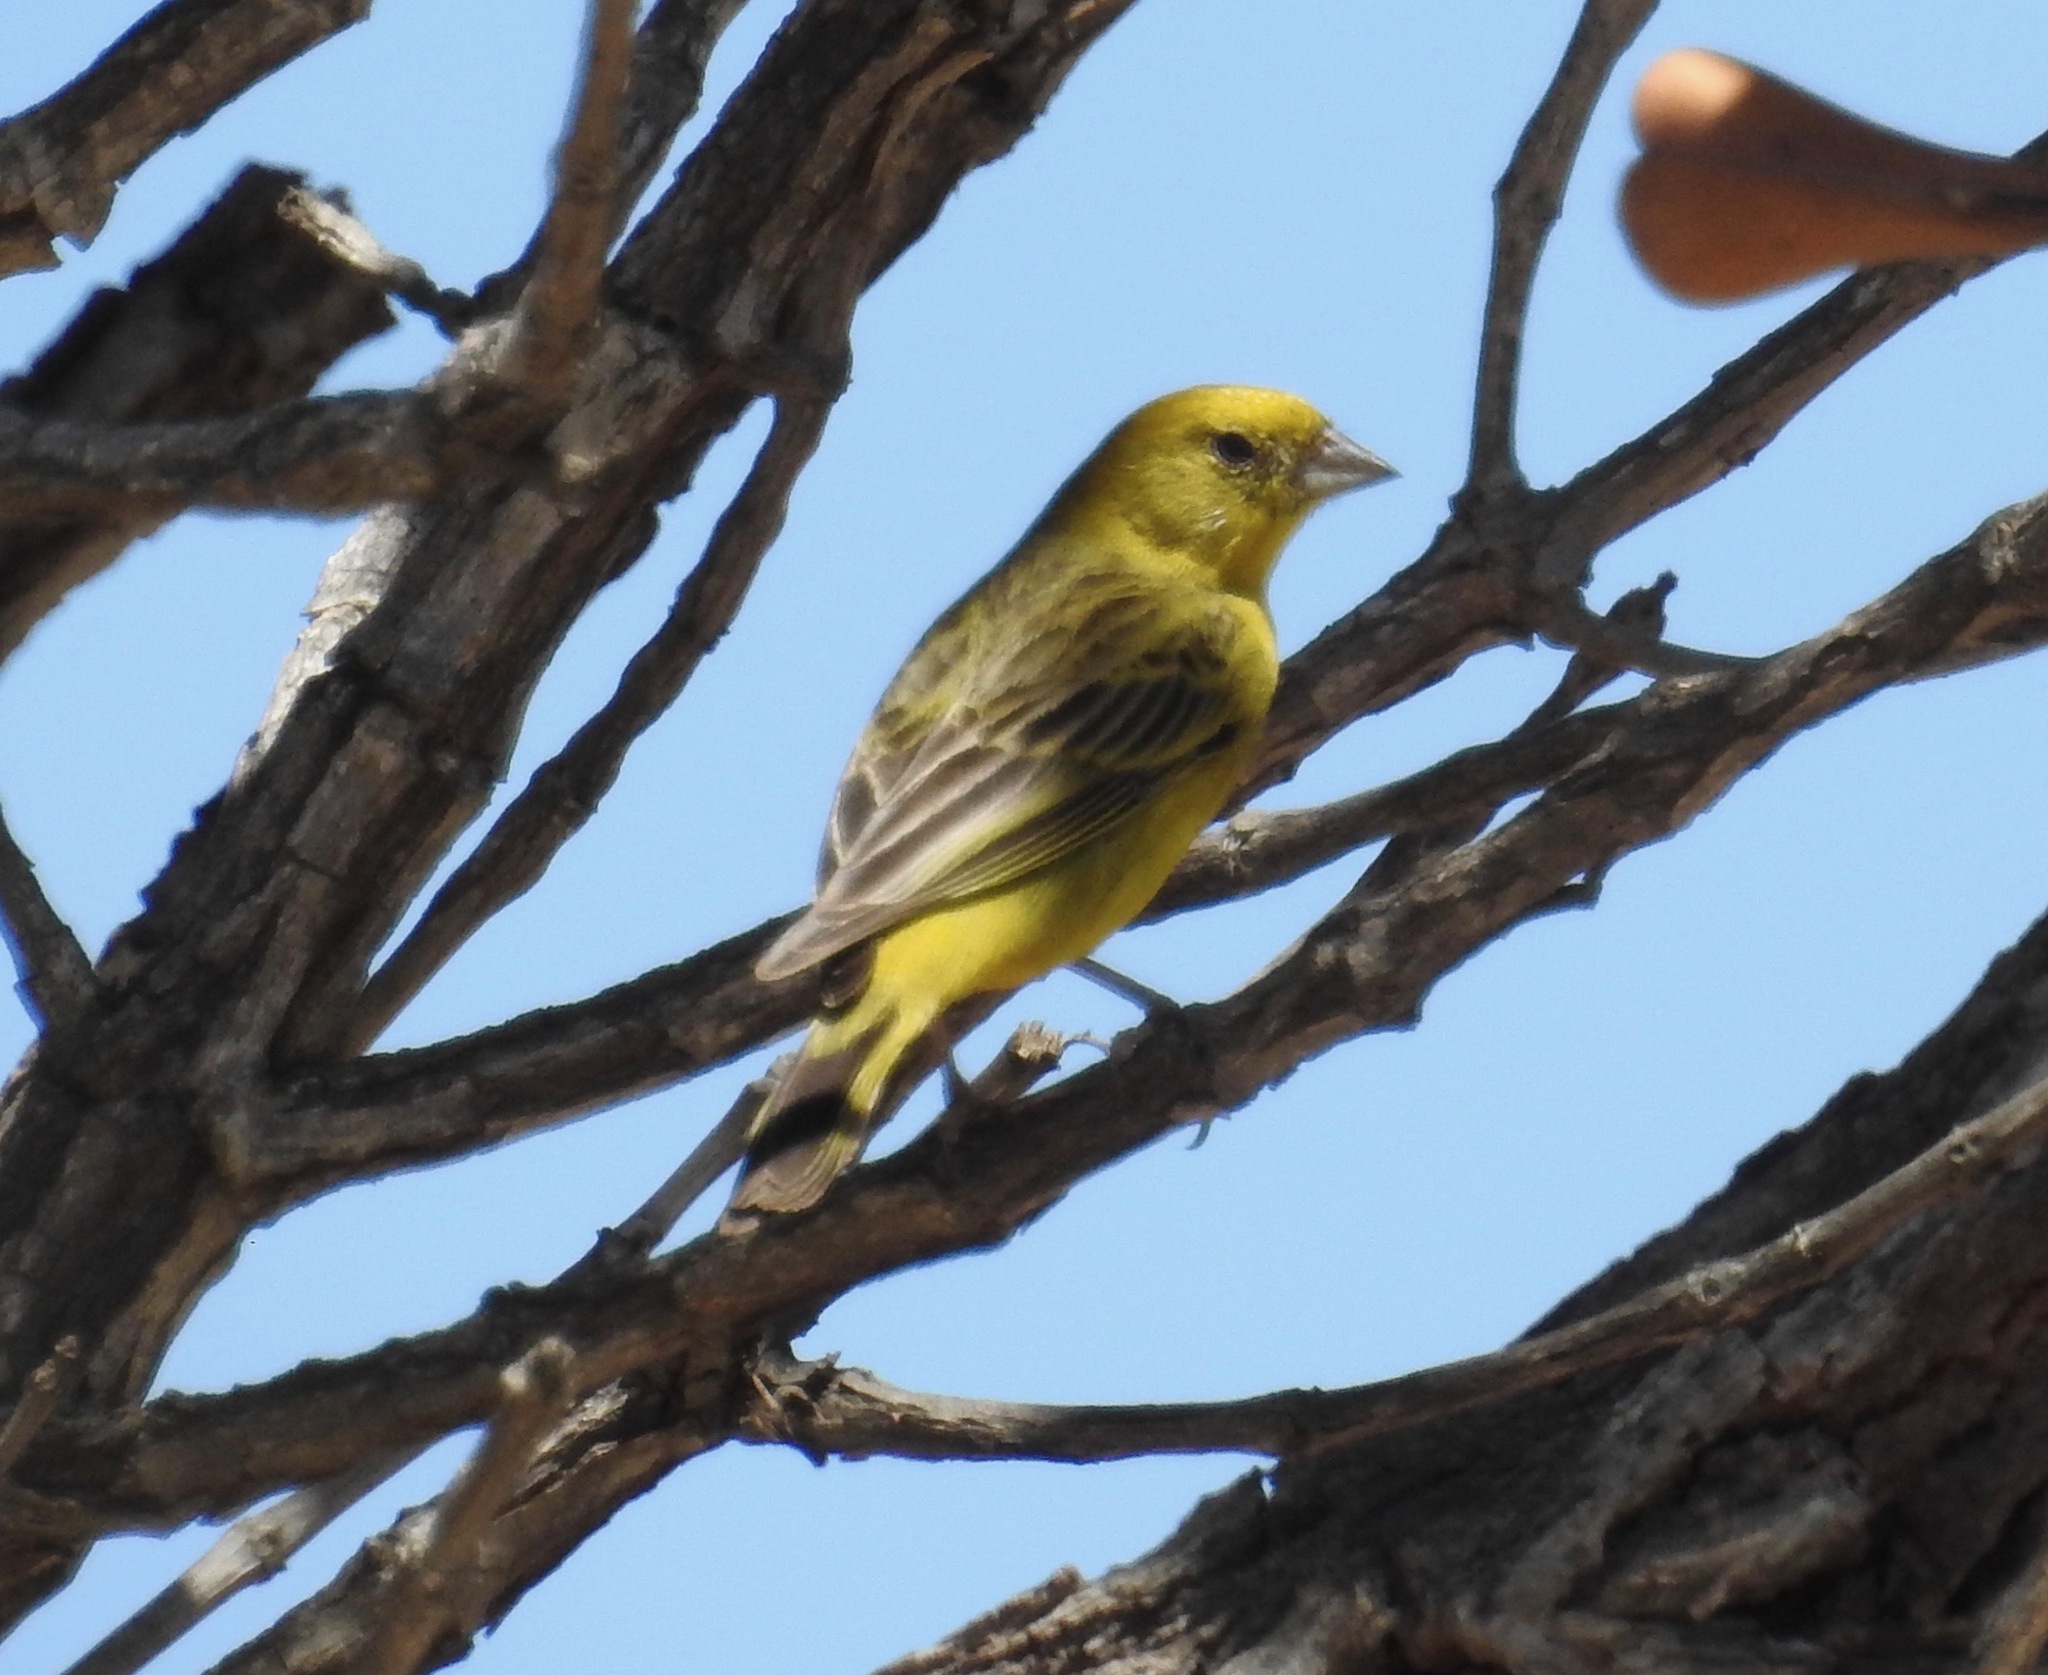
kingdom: Animalia
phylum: Chordata
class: Aves
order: Passeriformes
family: Thraupidae
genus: Sicalis
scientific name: Sicalis citrina
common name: Stripe-tailed yellow finch
